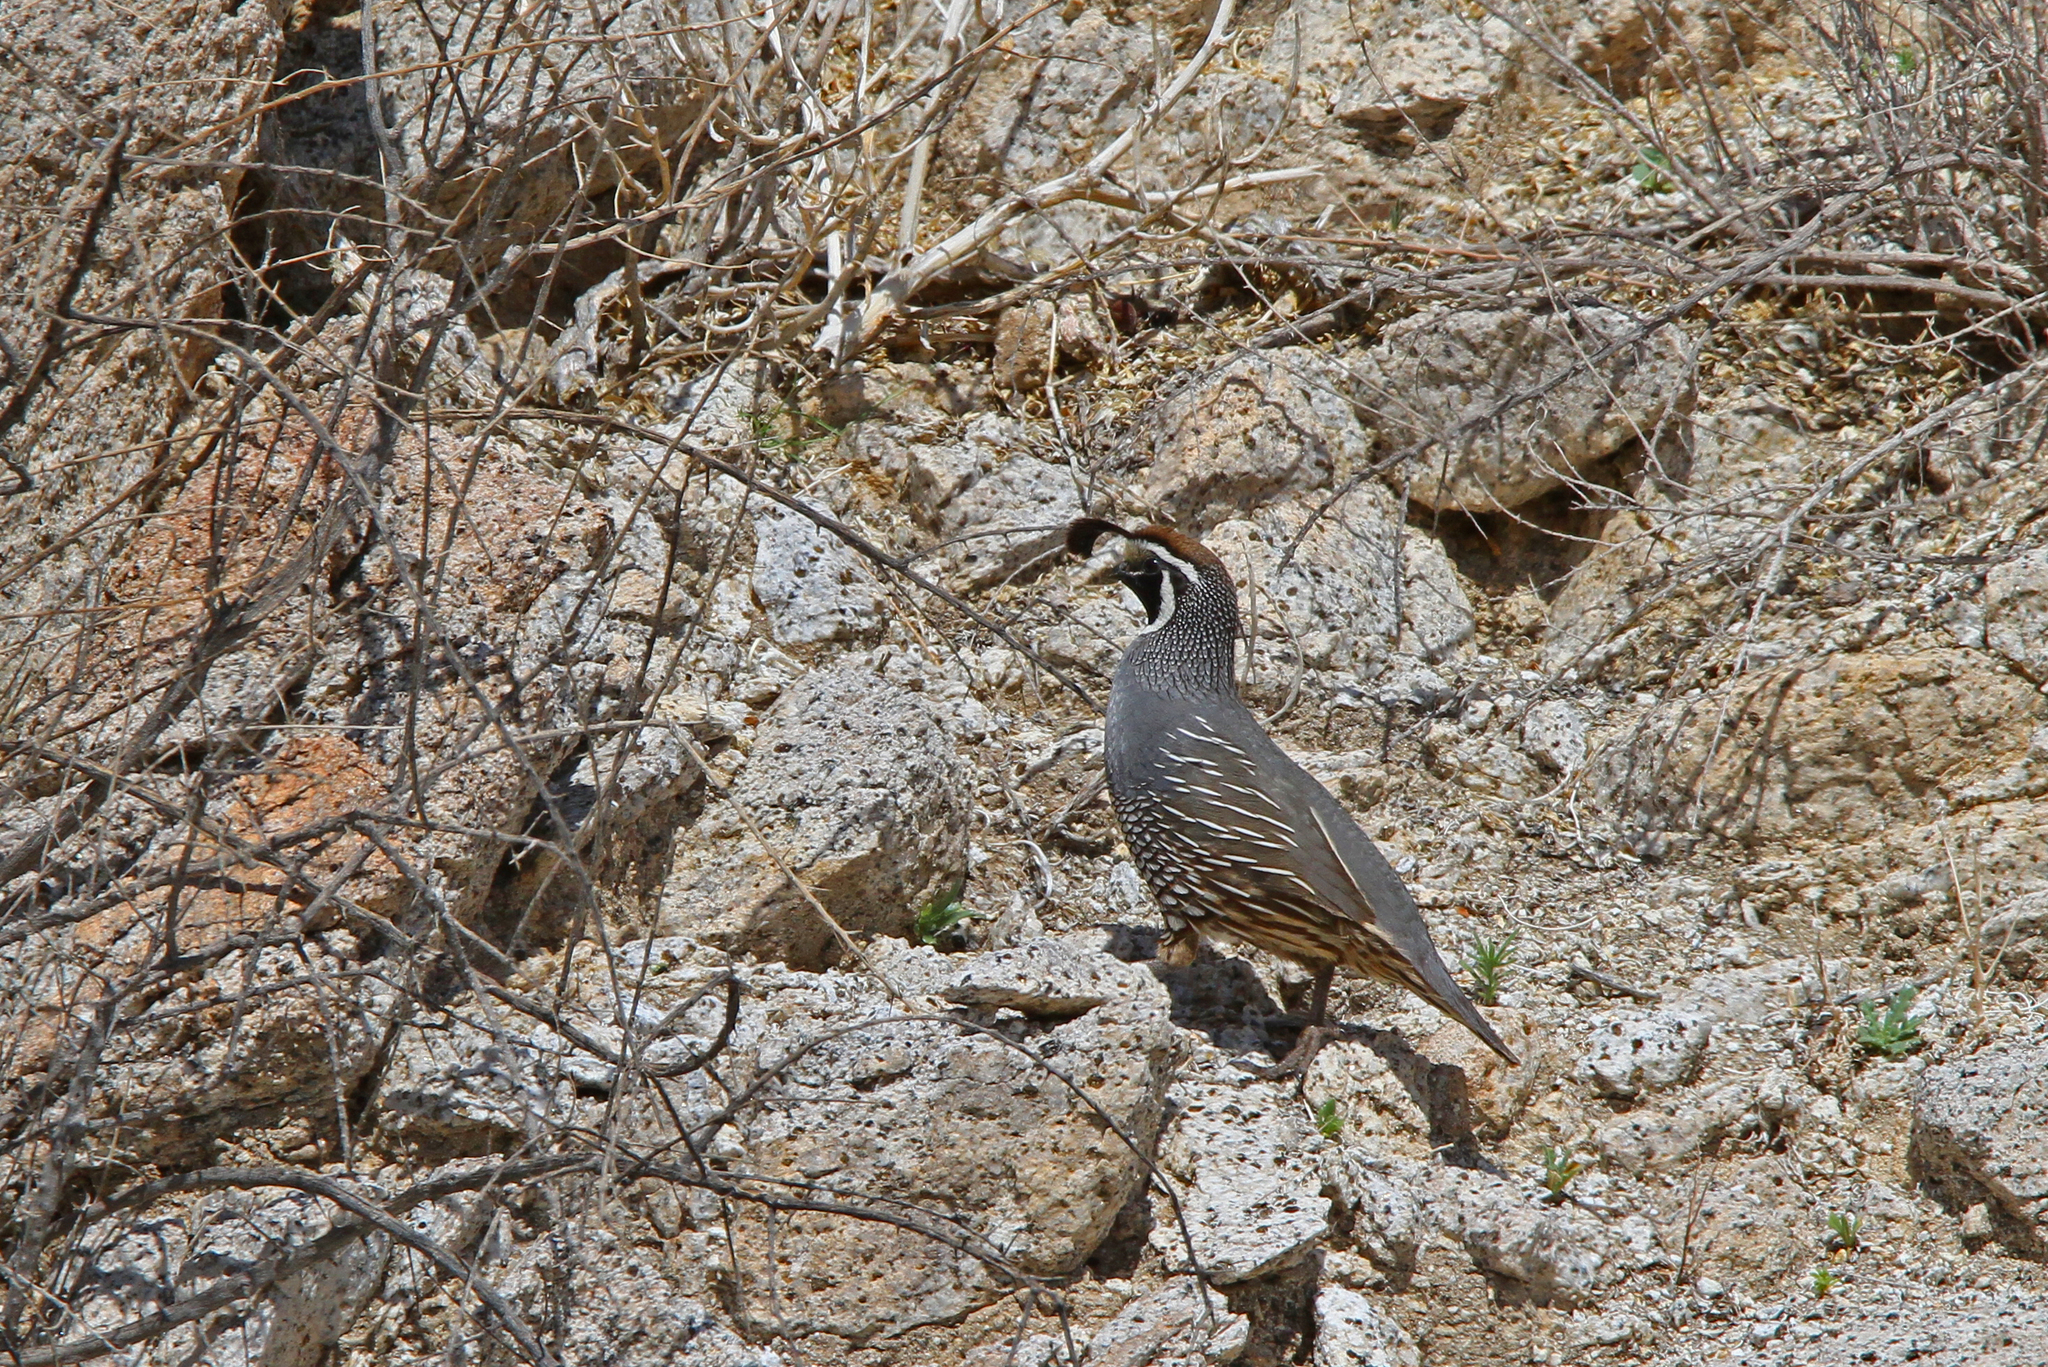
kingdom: Animalia
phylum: Chordata
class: Aves
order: Galliformes
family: Odontophoridae
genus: Callipepla
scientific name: Callipepla californica
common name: California quail
